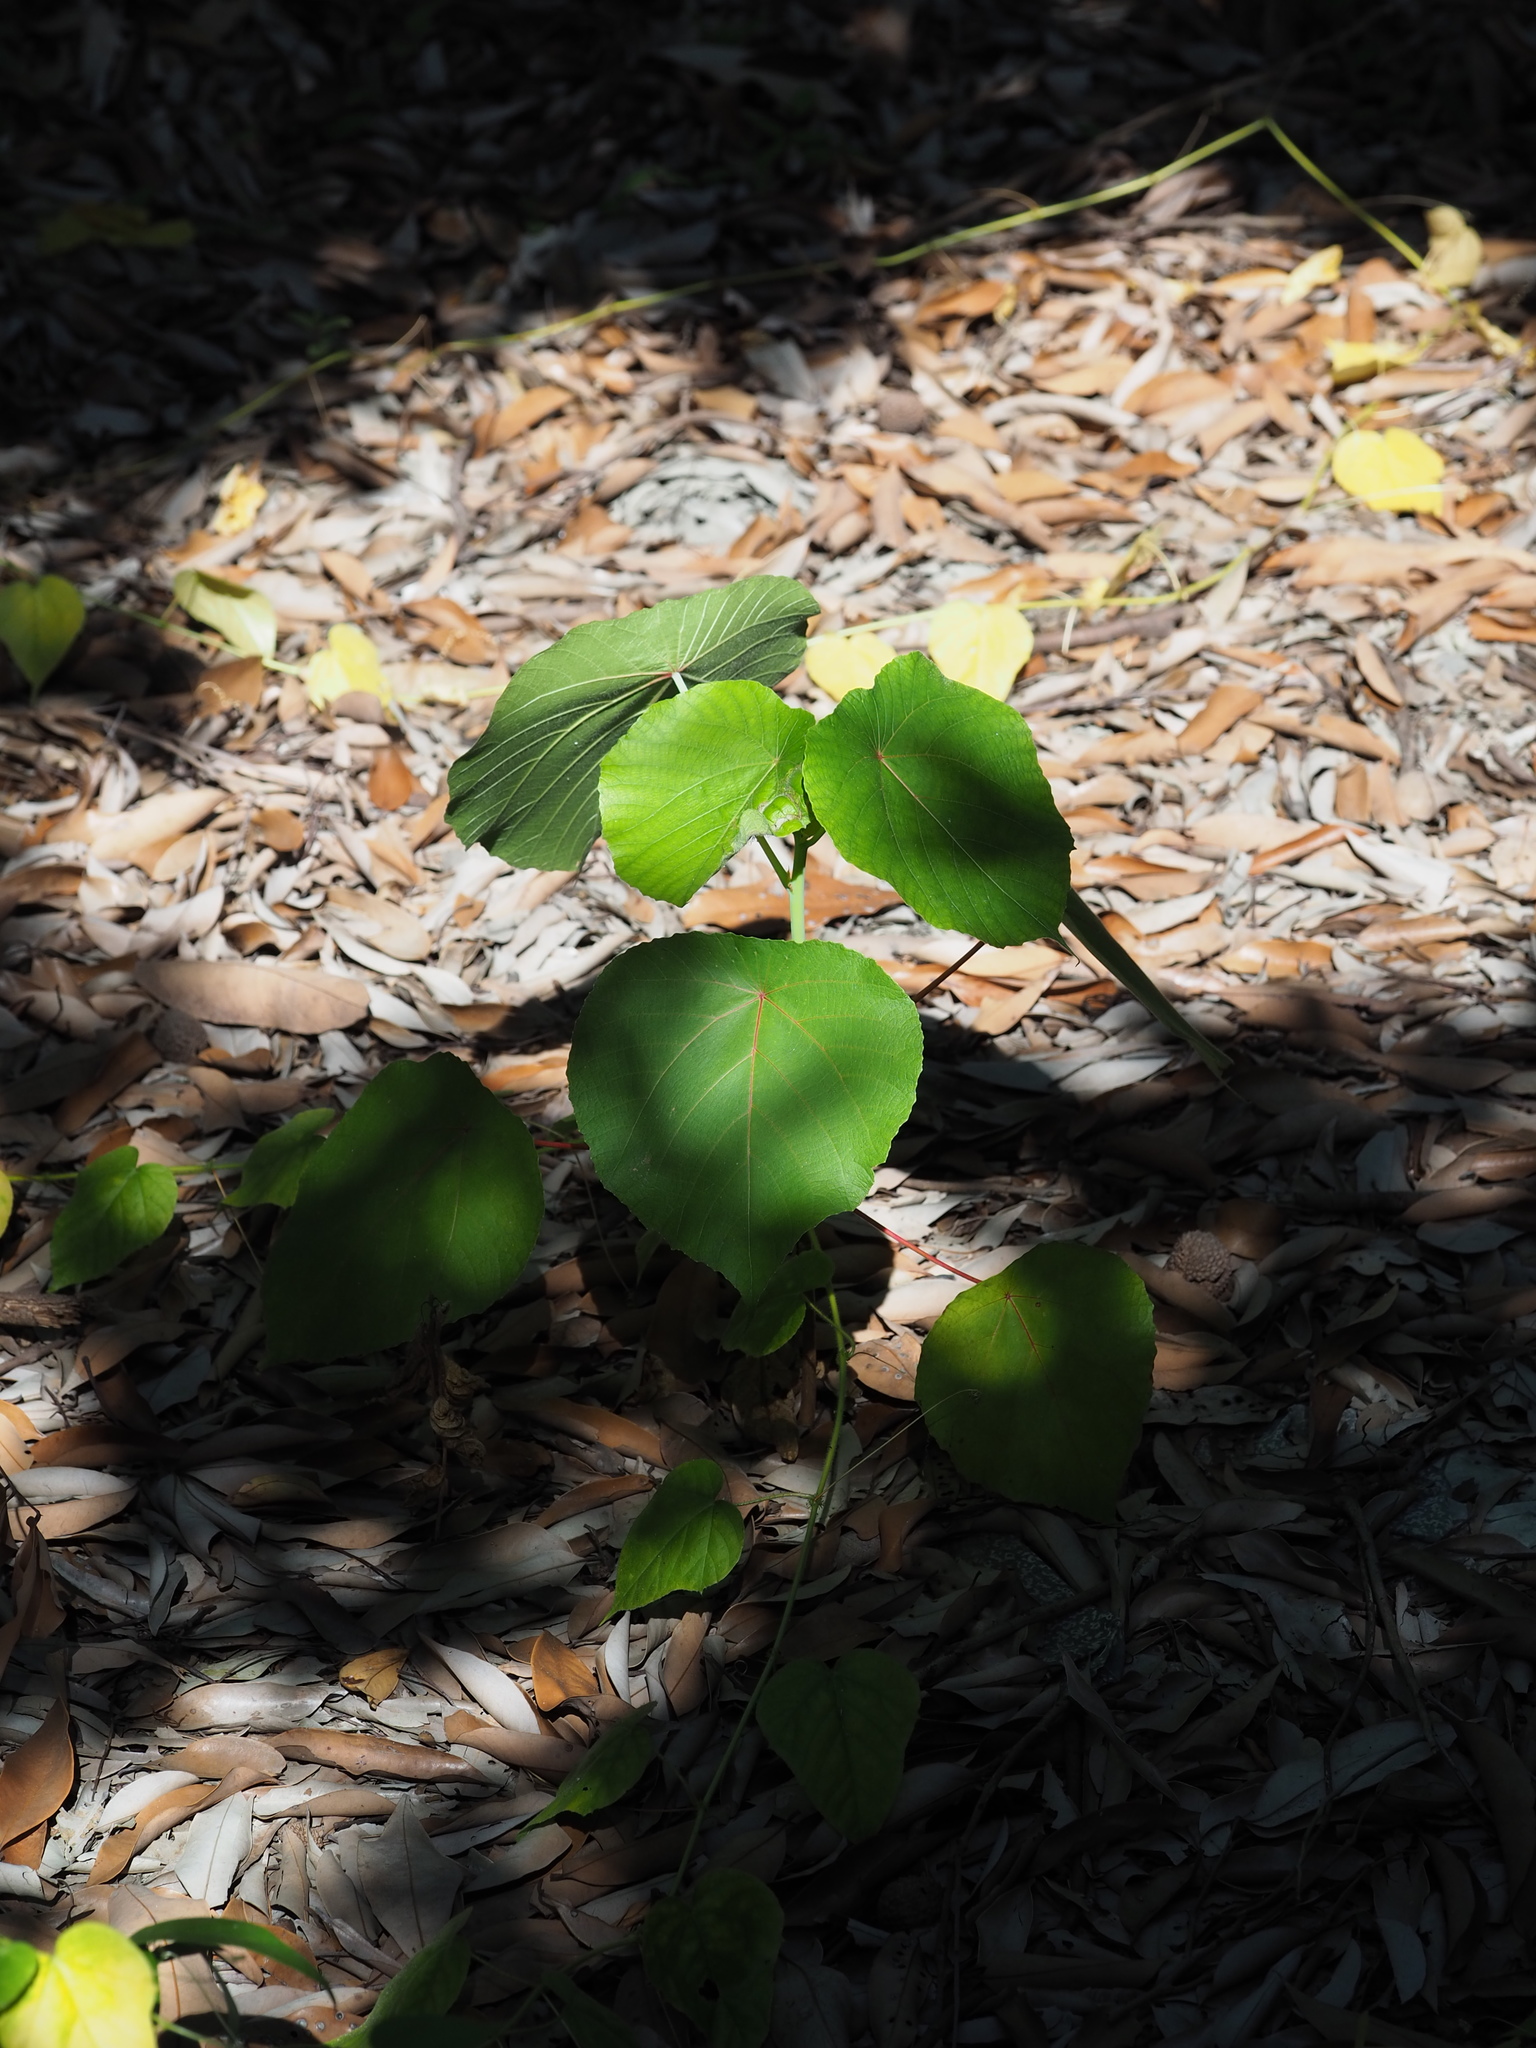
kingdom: Plantae
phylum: Tracheophyta
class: Magnoliopsida
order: Malpighiales
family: Euphorbiaceae
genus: Macaranga
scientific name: Macaranga tanarius
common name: Parasol leaf tree
